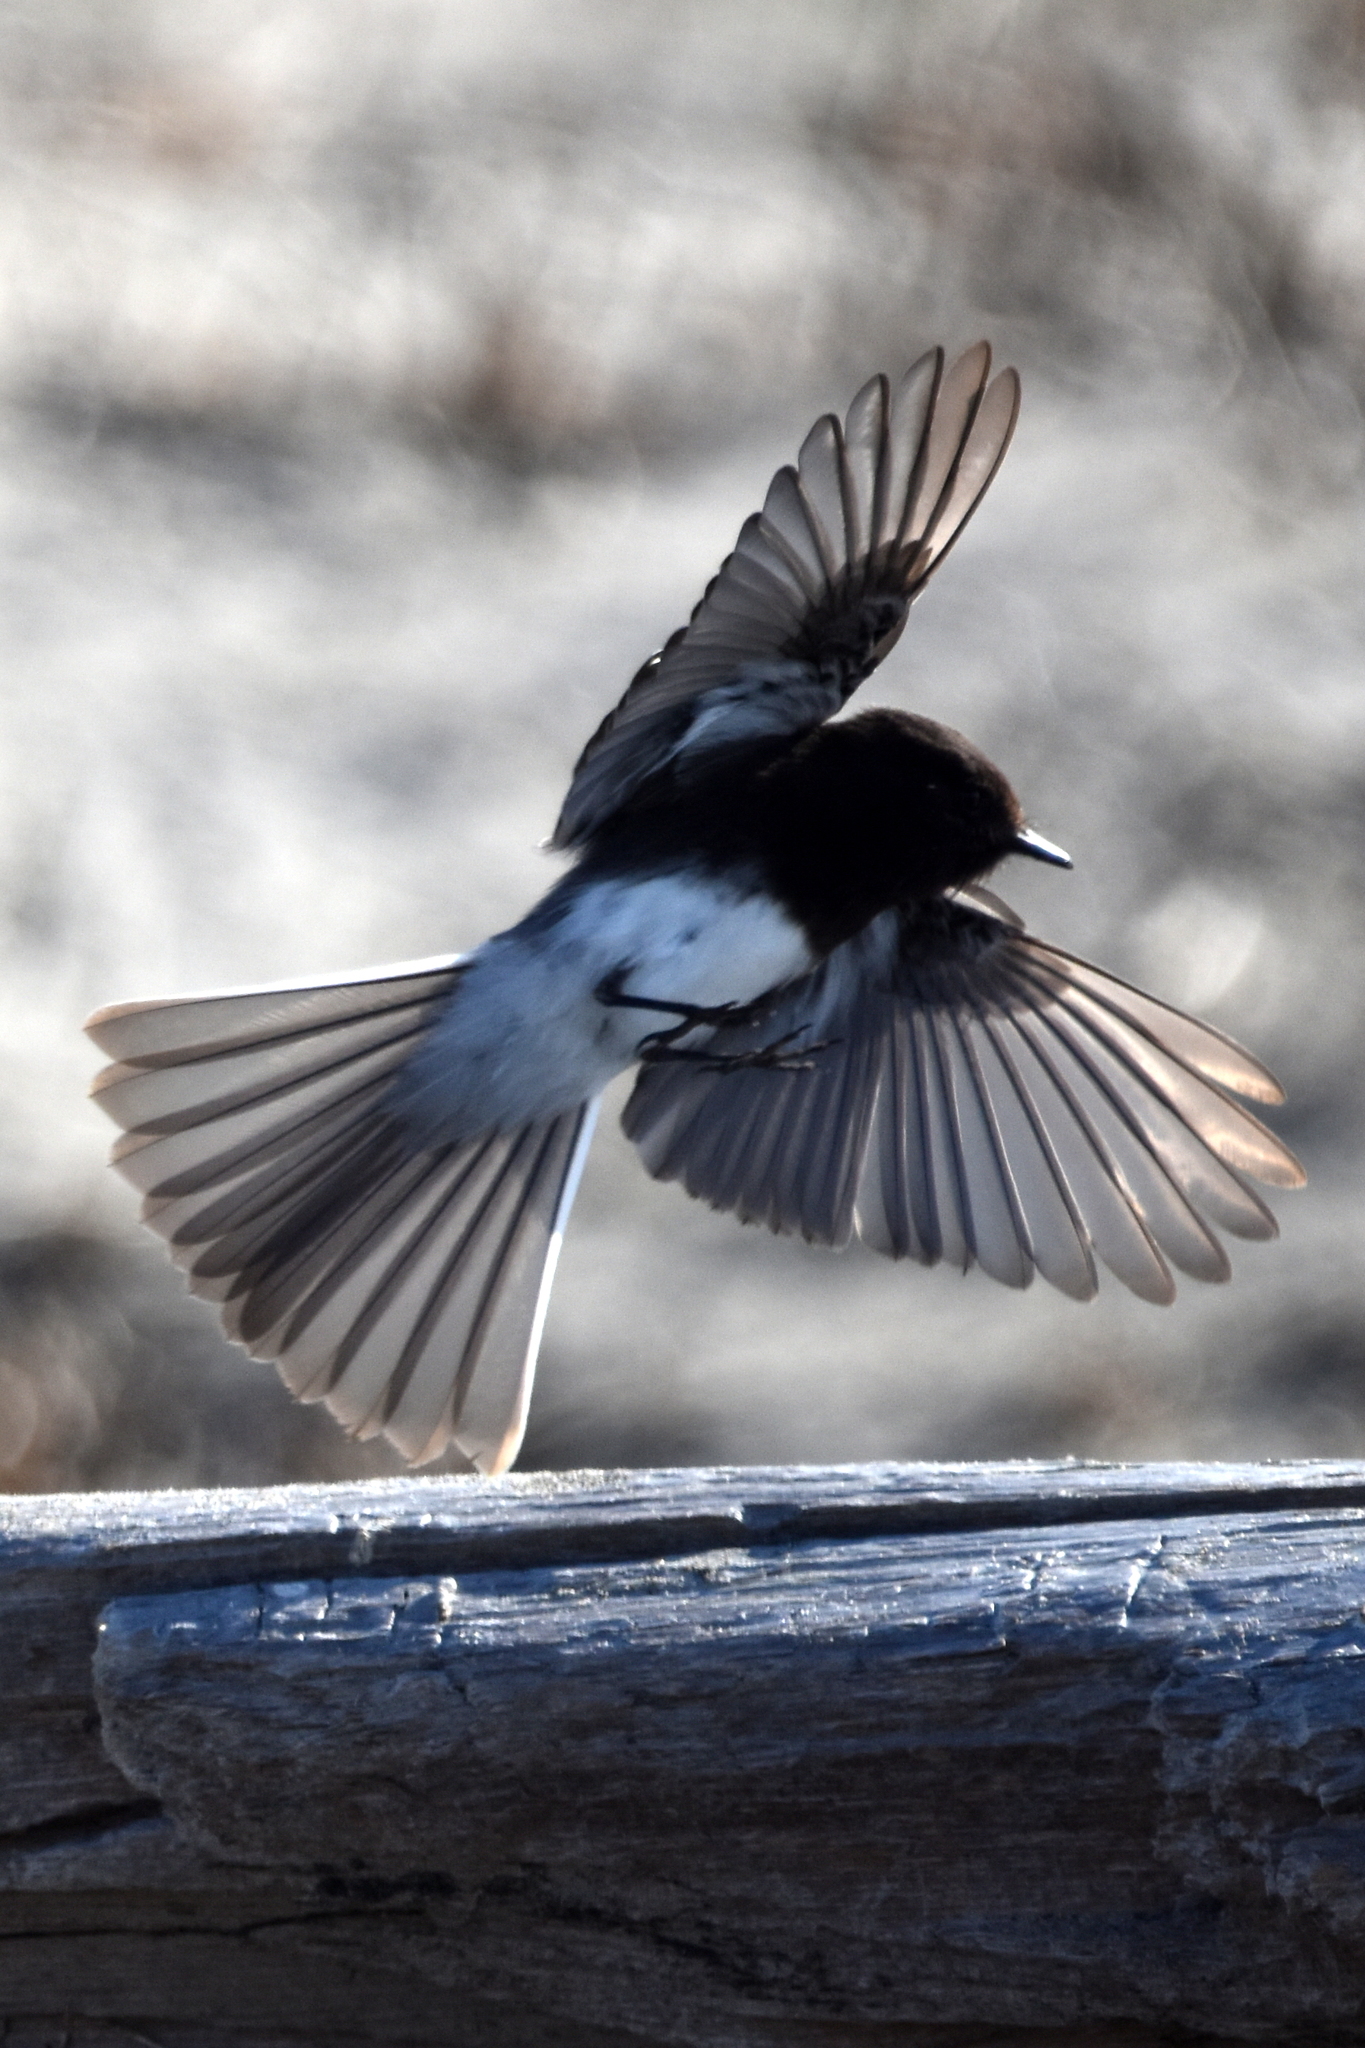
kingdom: Animalia
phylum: Chordata
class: Aves
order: Passeriformes
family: Tyrannidae
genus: Sayornis
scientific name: Sayornis nigricans
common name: Black phoebe
